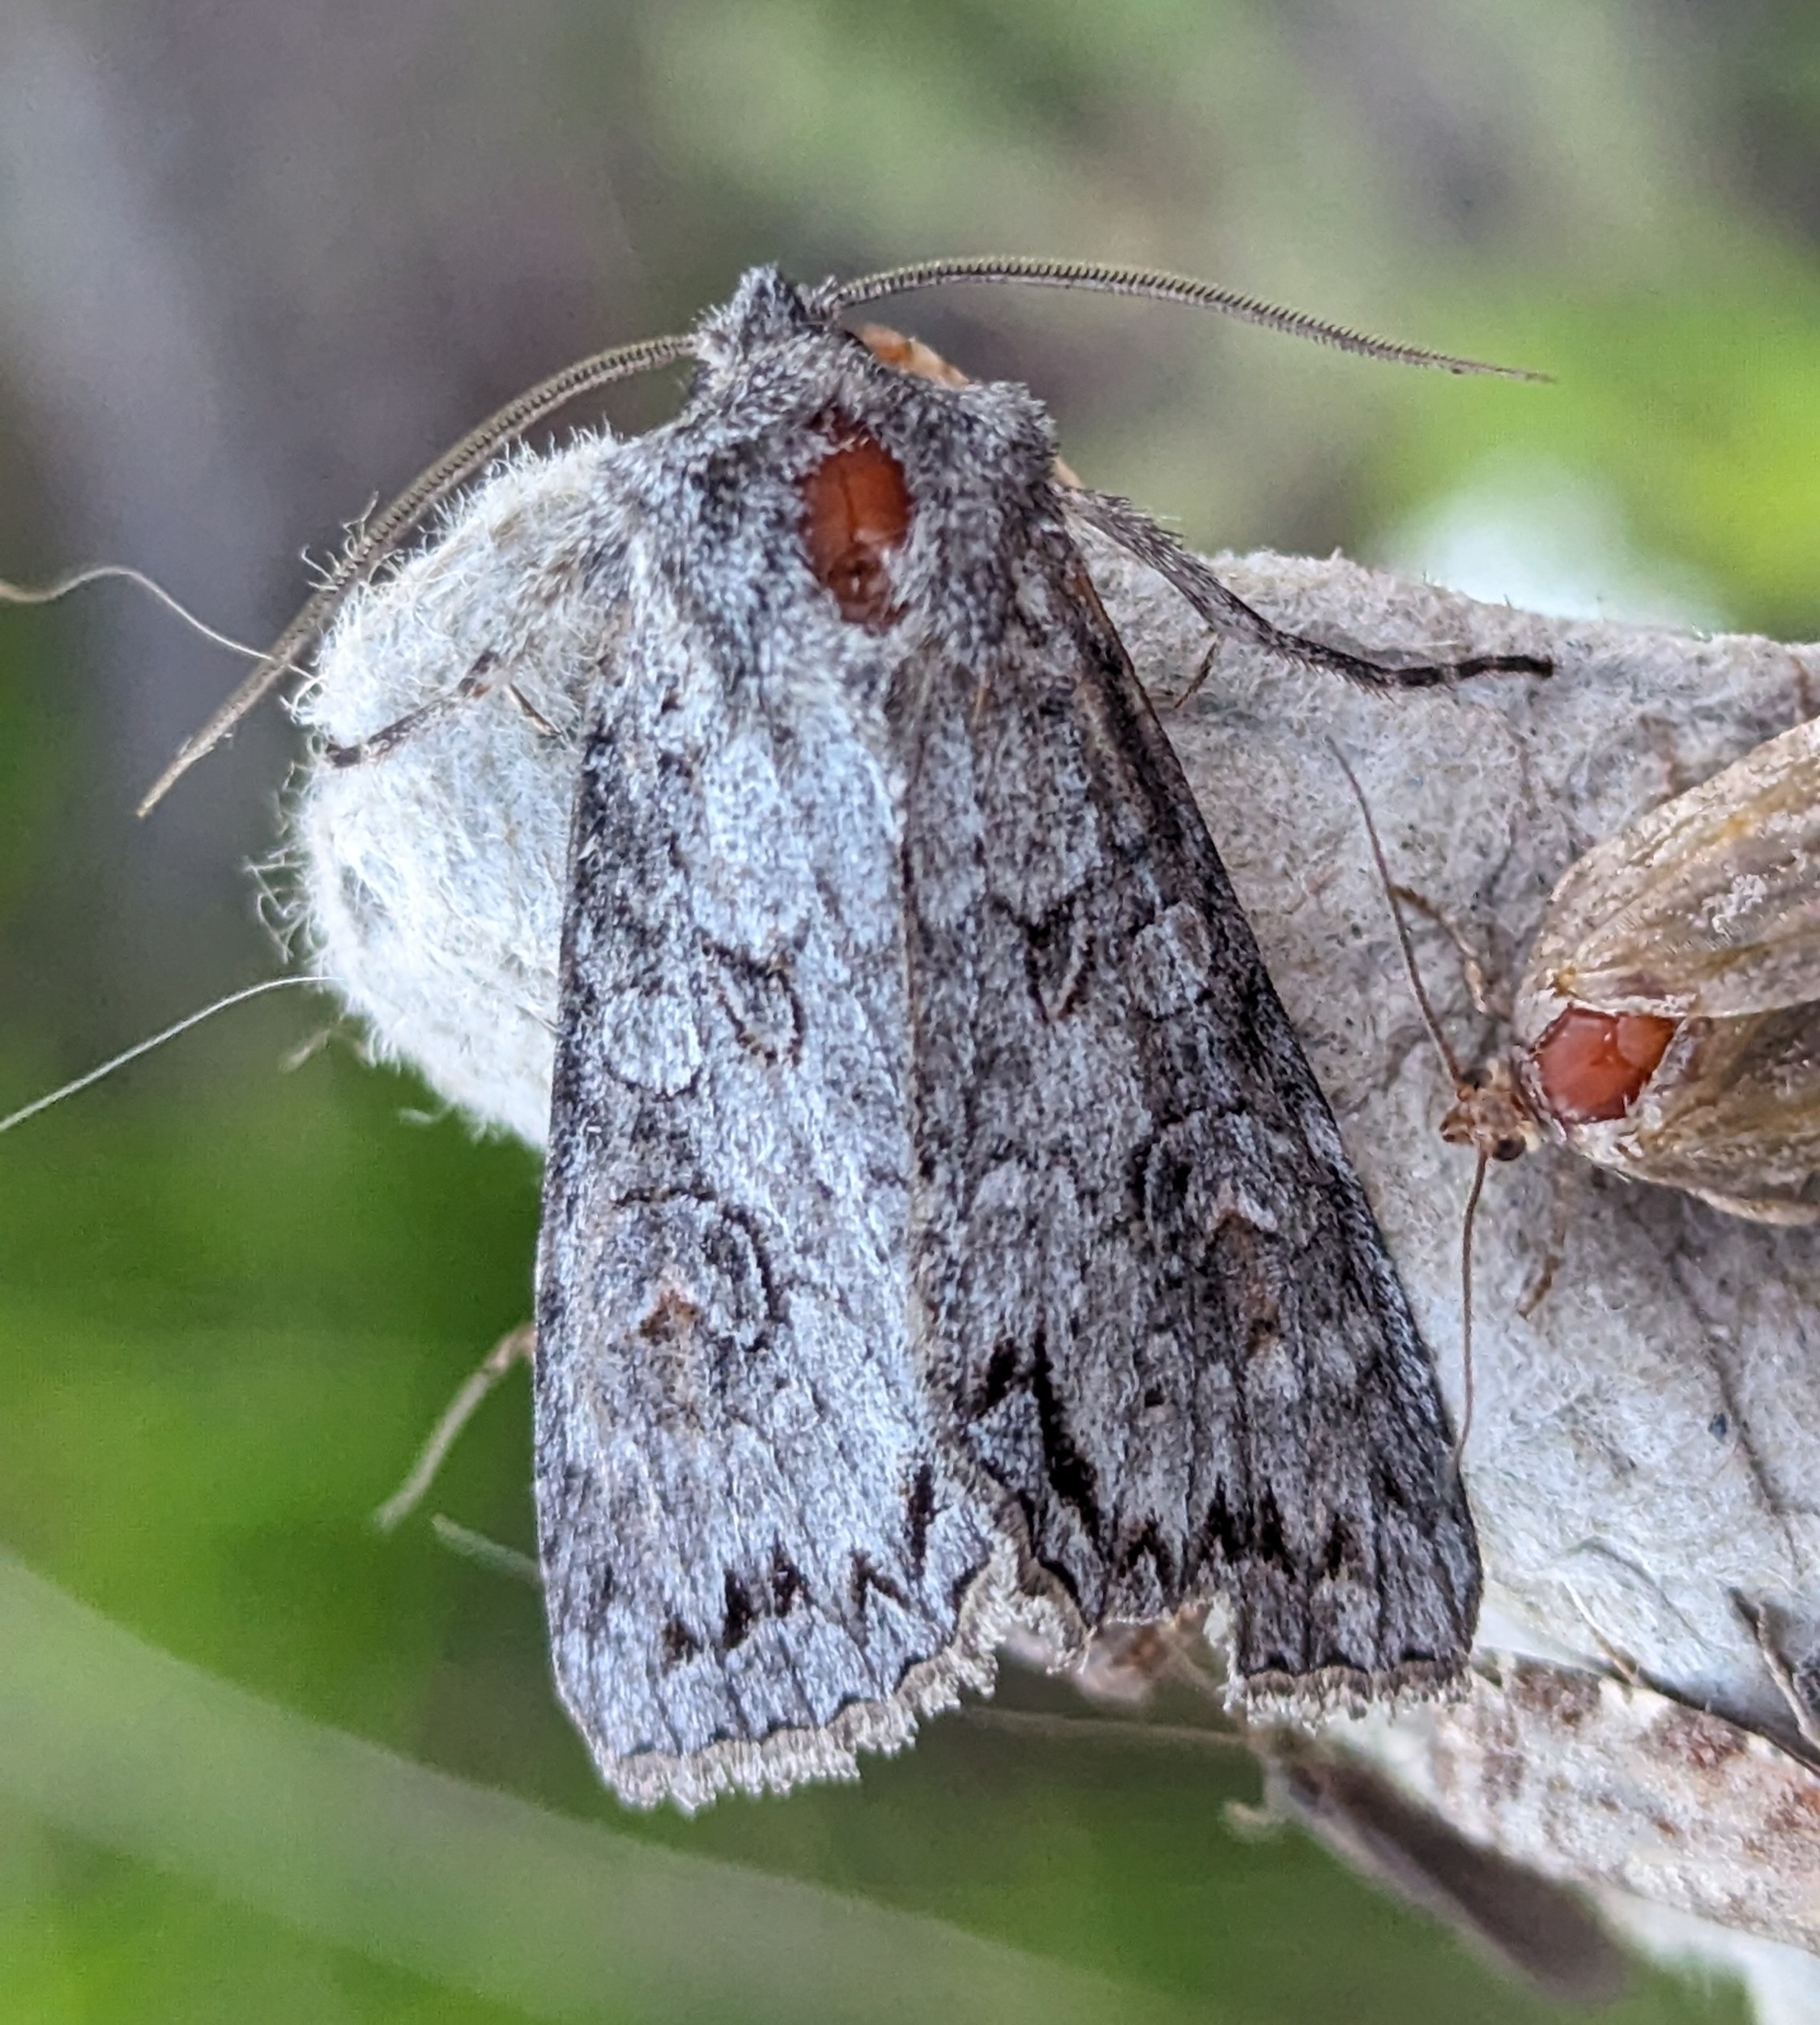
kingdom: Animalia
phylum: Arthropoda
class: Insecta
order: Lepidoptera
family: Noctuidae
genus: Polia
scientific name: Polia purpurissata
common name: Purple arches moth
